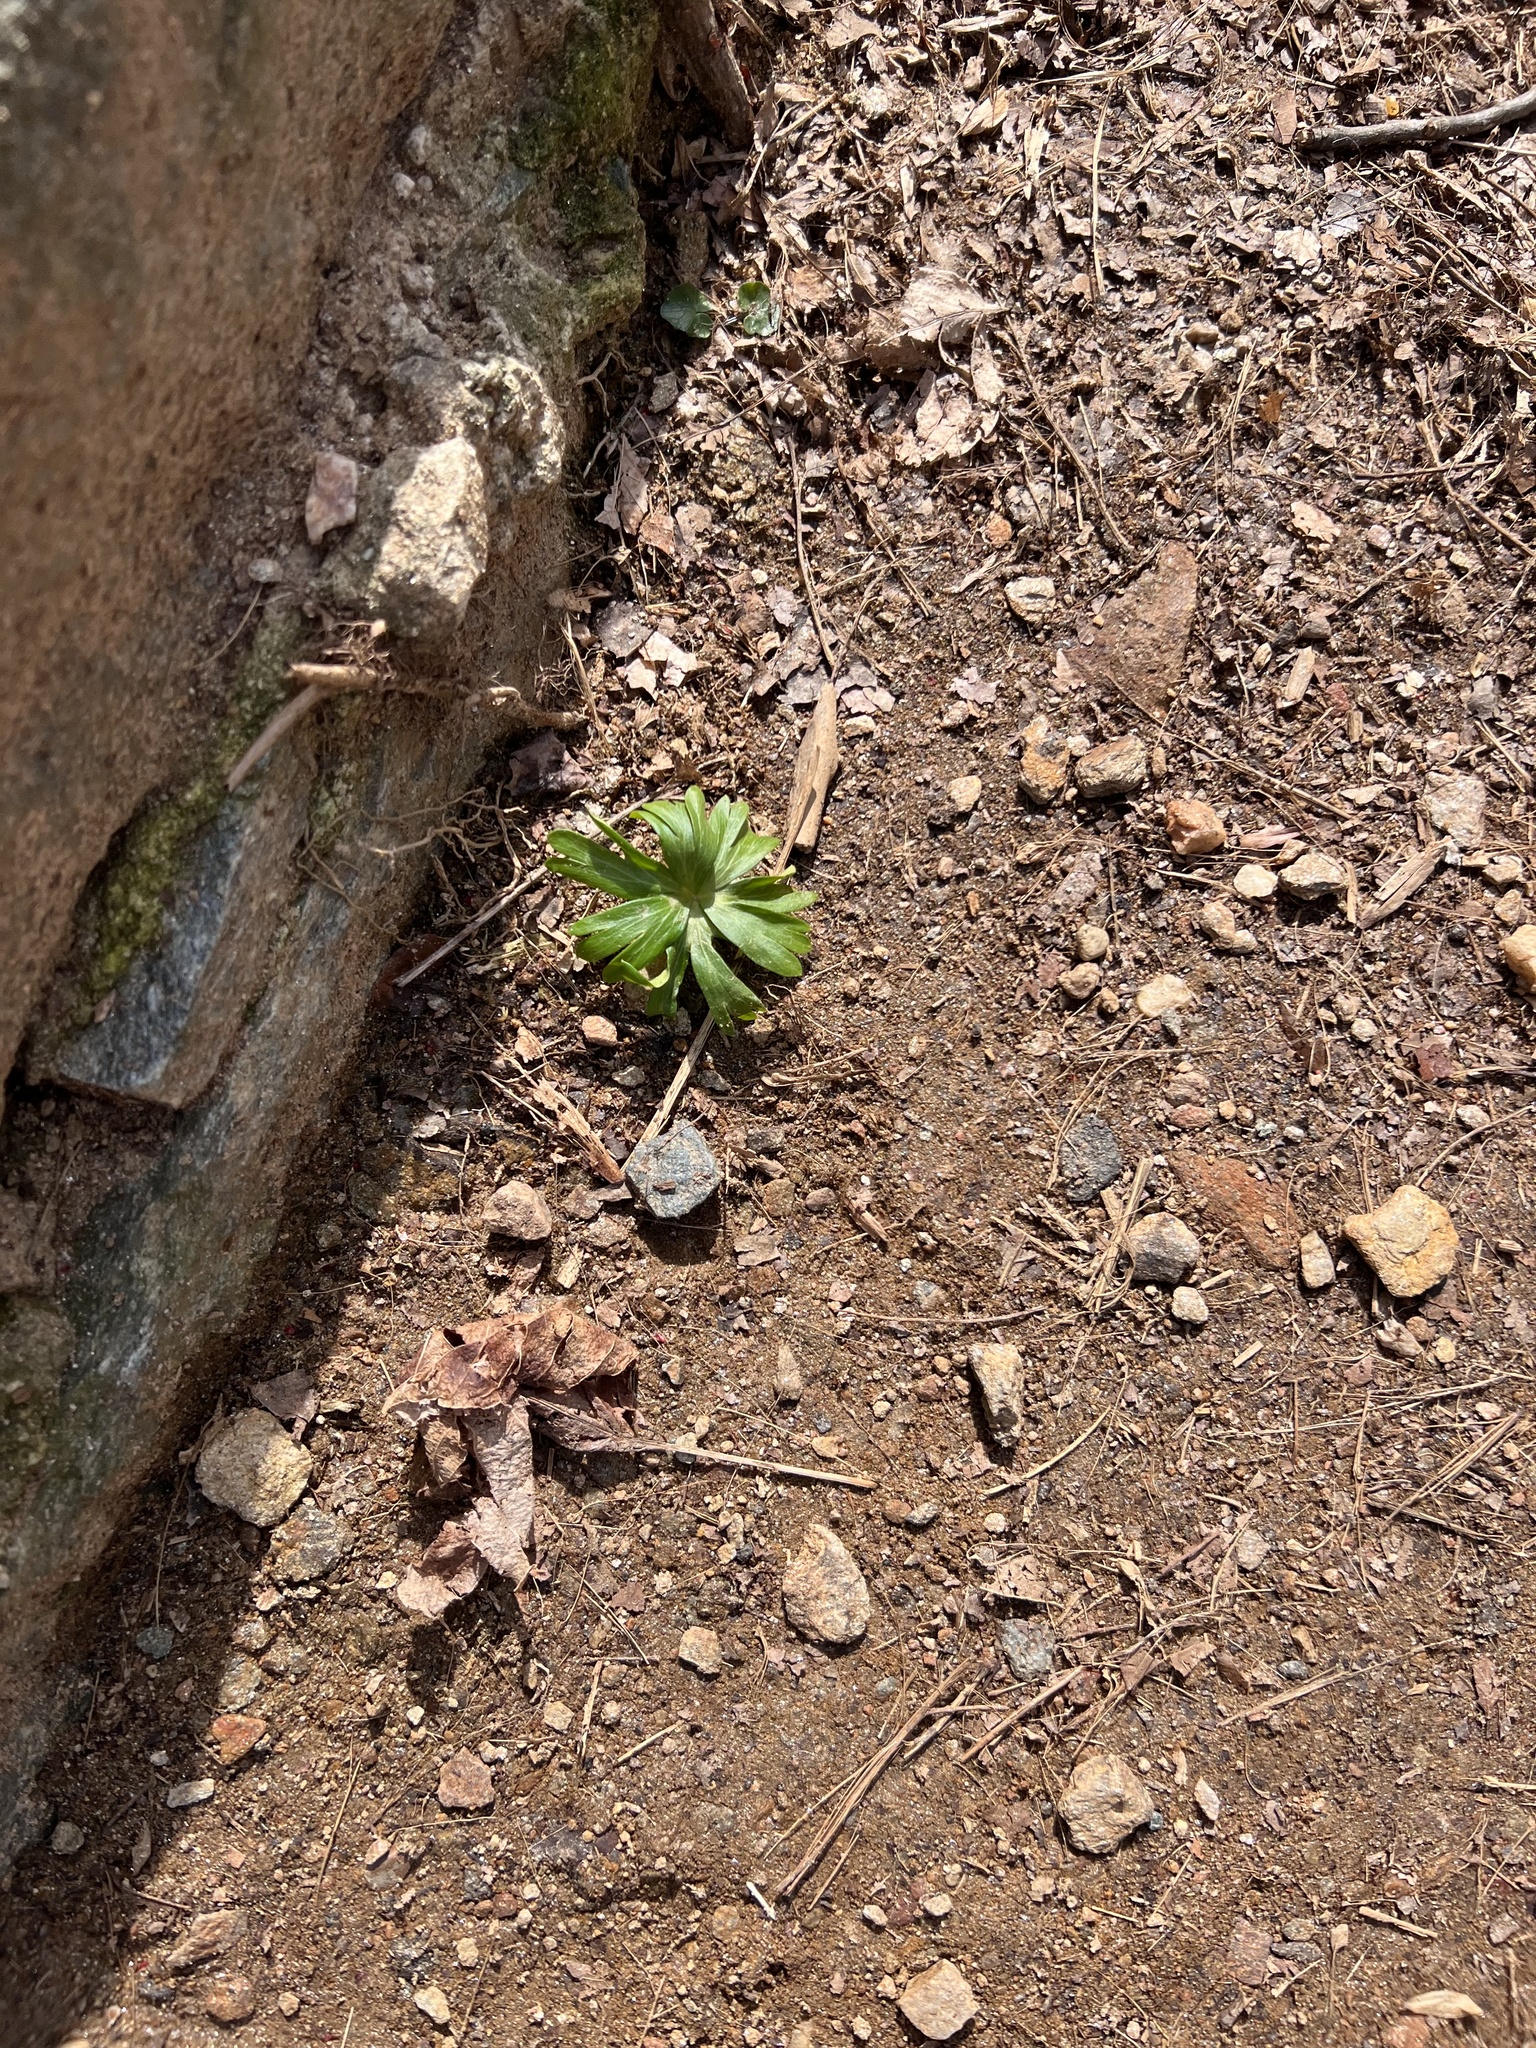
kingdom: Plantae
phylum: Tracheophyta
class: Magnoliopsida
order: Ranunculales
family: Ranunculaceae
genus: Eranthis
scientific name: Eranthis hyemalis
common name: Winter aconite
